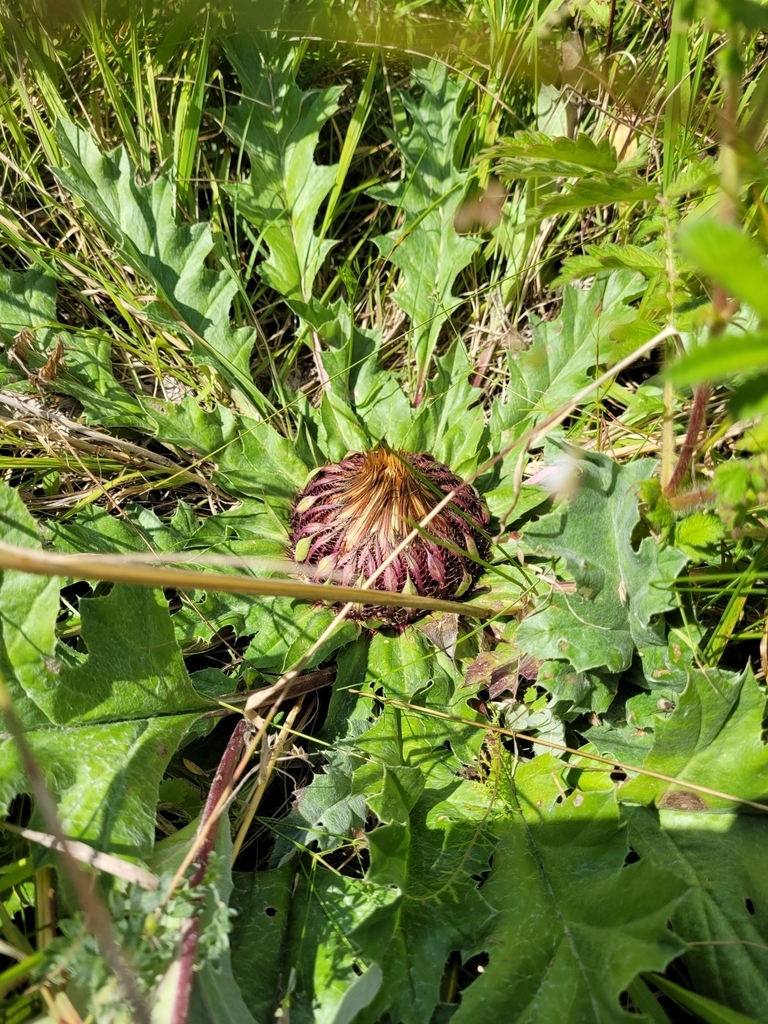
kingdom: Plantae
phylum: Tracheophyta
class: Magnoliopsida
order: Asterales
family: Asteraceae
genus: Carlina
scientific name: Carlina acanthifolia
